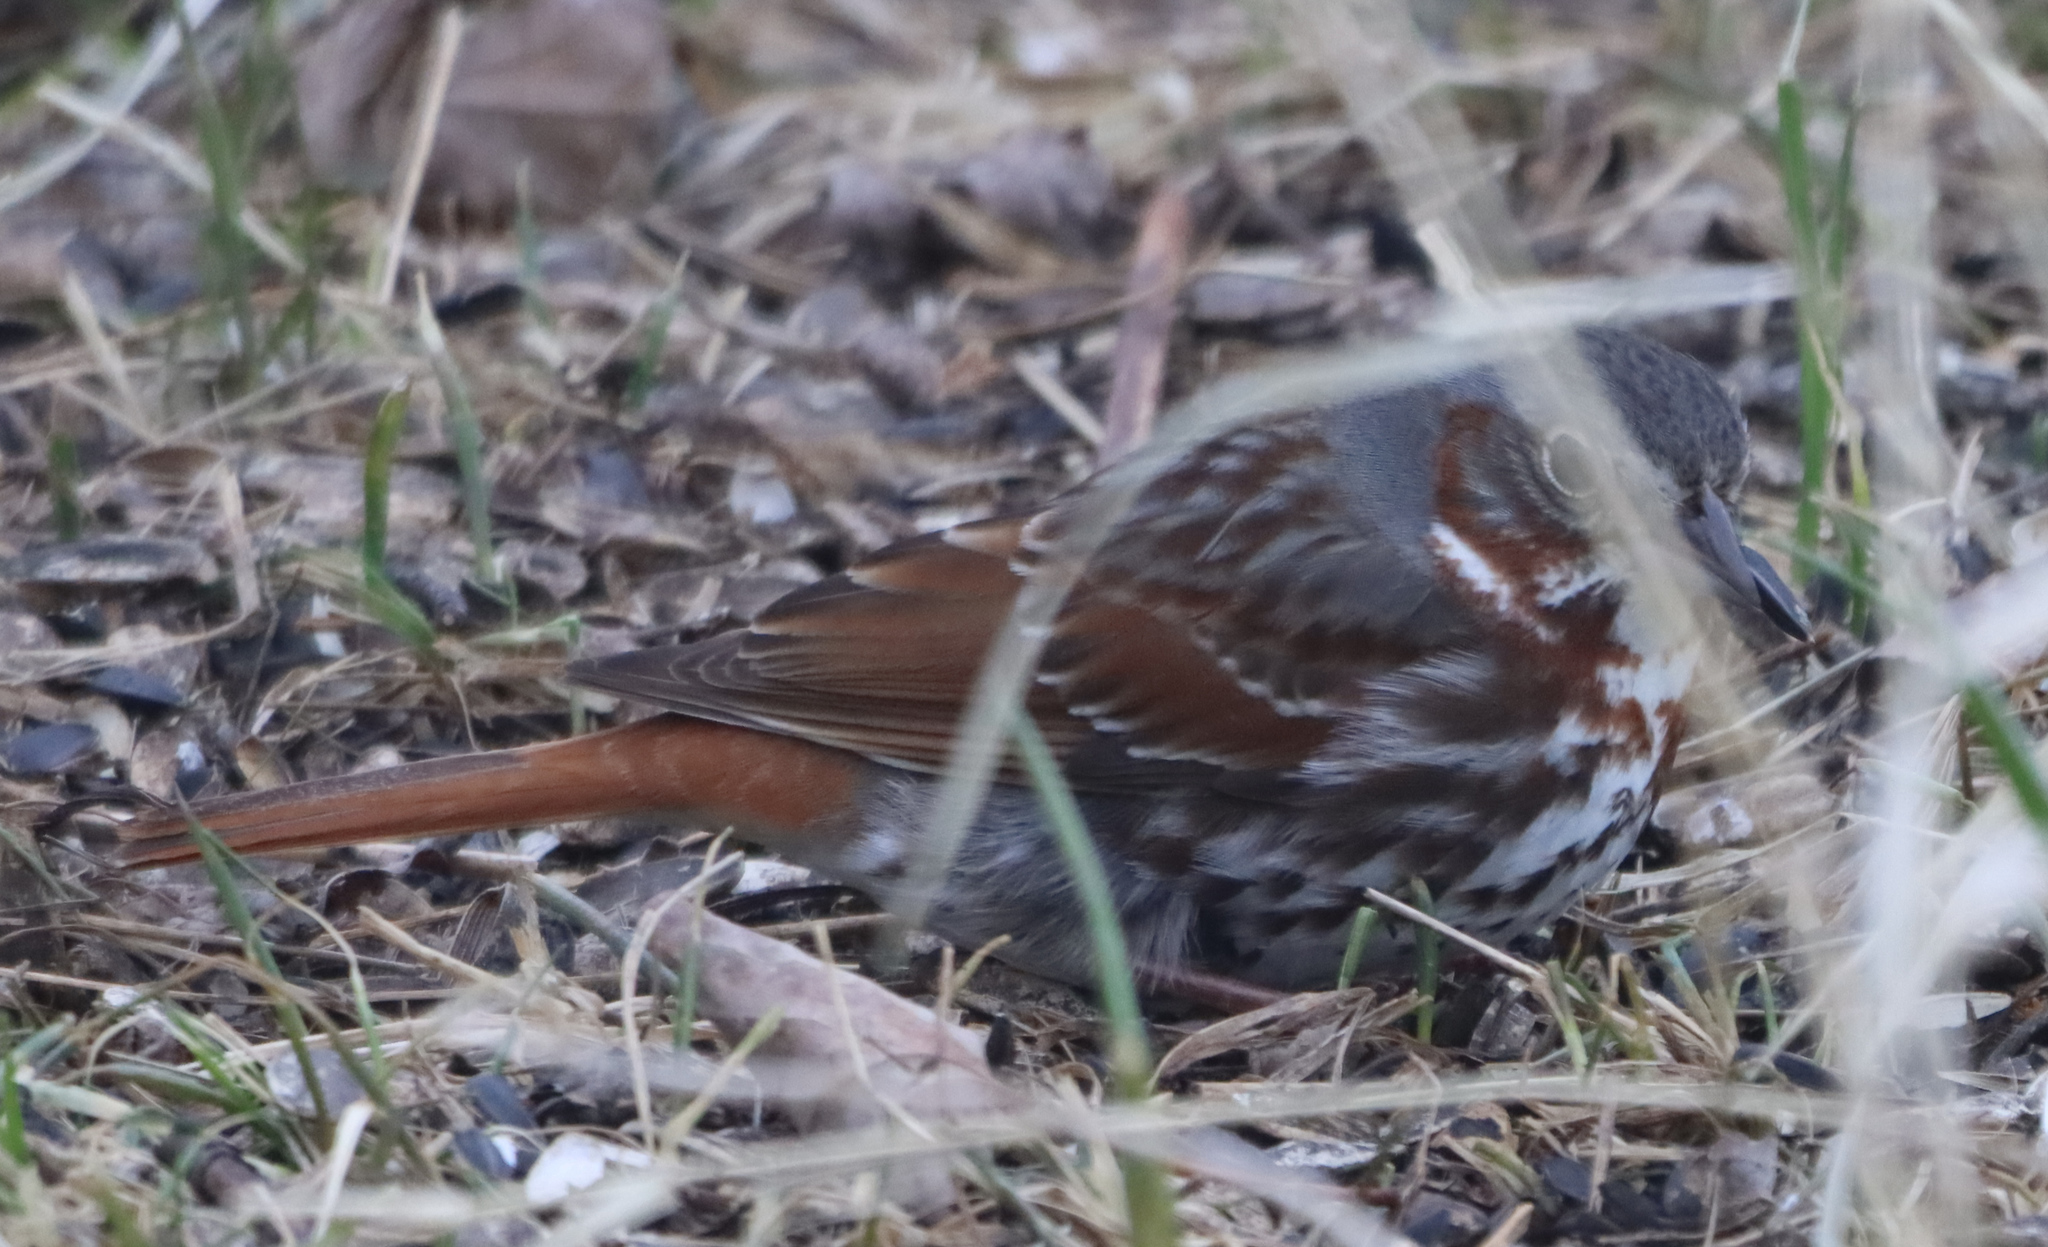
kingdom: Animalia
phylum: Chordata
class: Aves
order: Passeriformes
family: Passerellidae
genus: Passerella
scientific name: Passerella iliaca
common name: Fox sparrow
